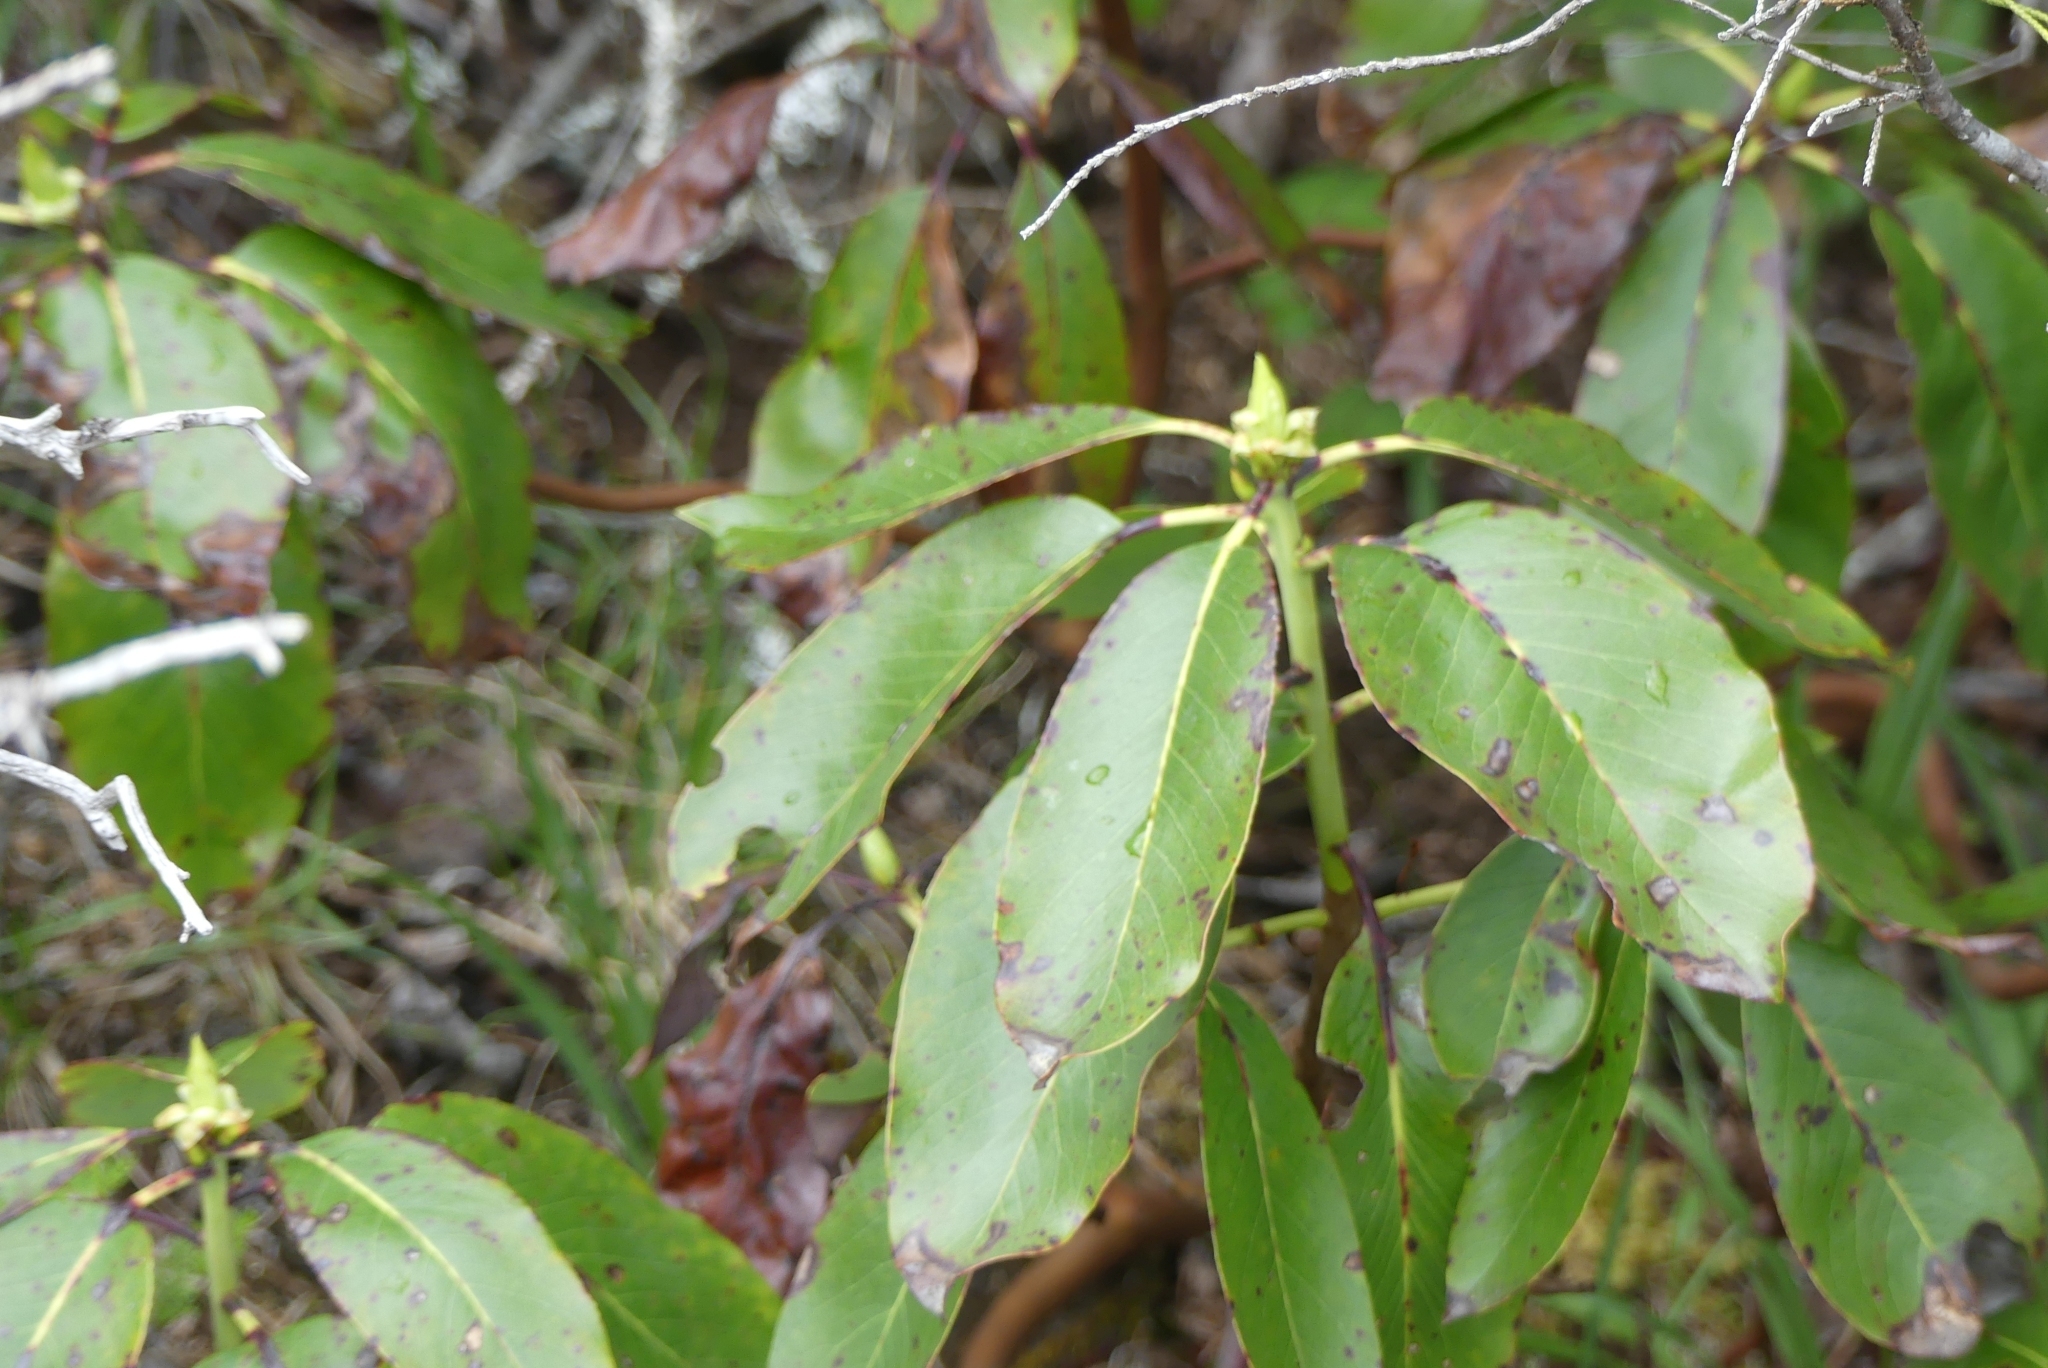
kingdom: Plantae
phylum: Tracheophyta
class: Magnoliopsida
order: Ericales
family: Ericaceae
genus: Arbutus
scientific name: Arbutus menziesii
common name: Pacific madrone
